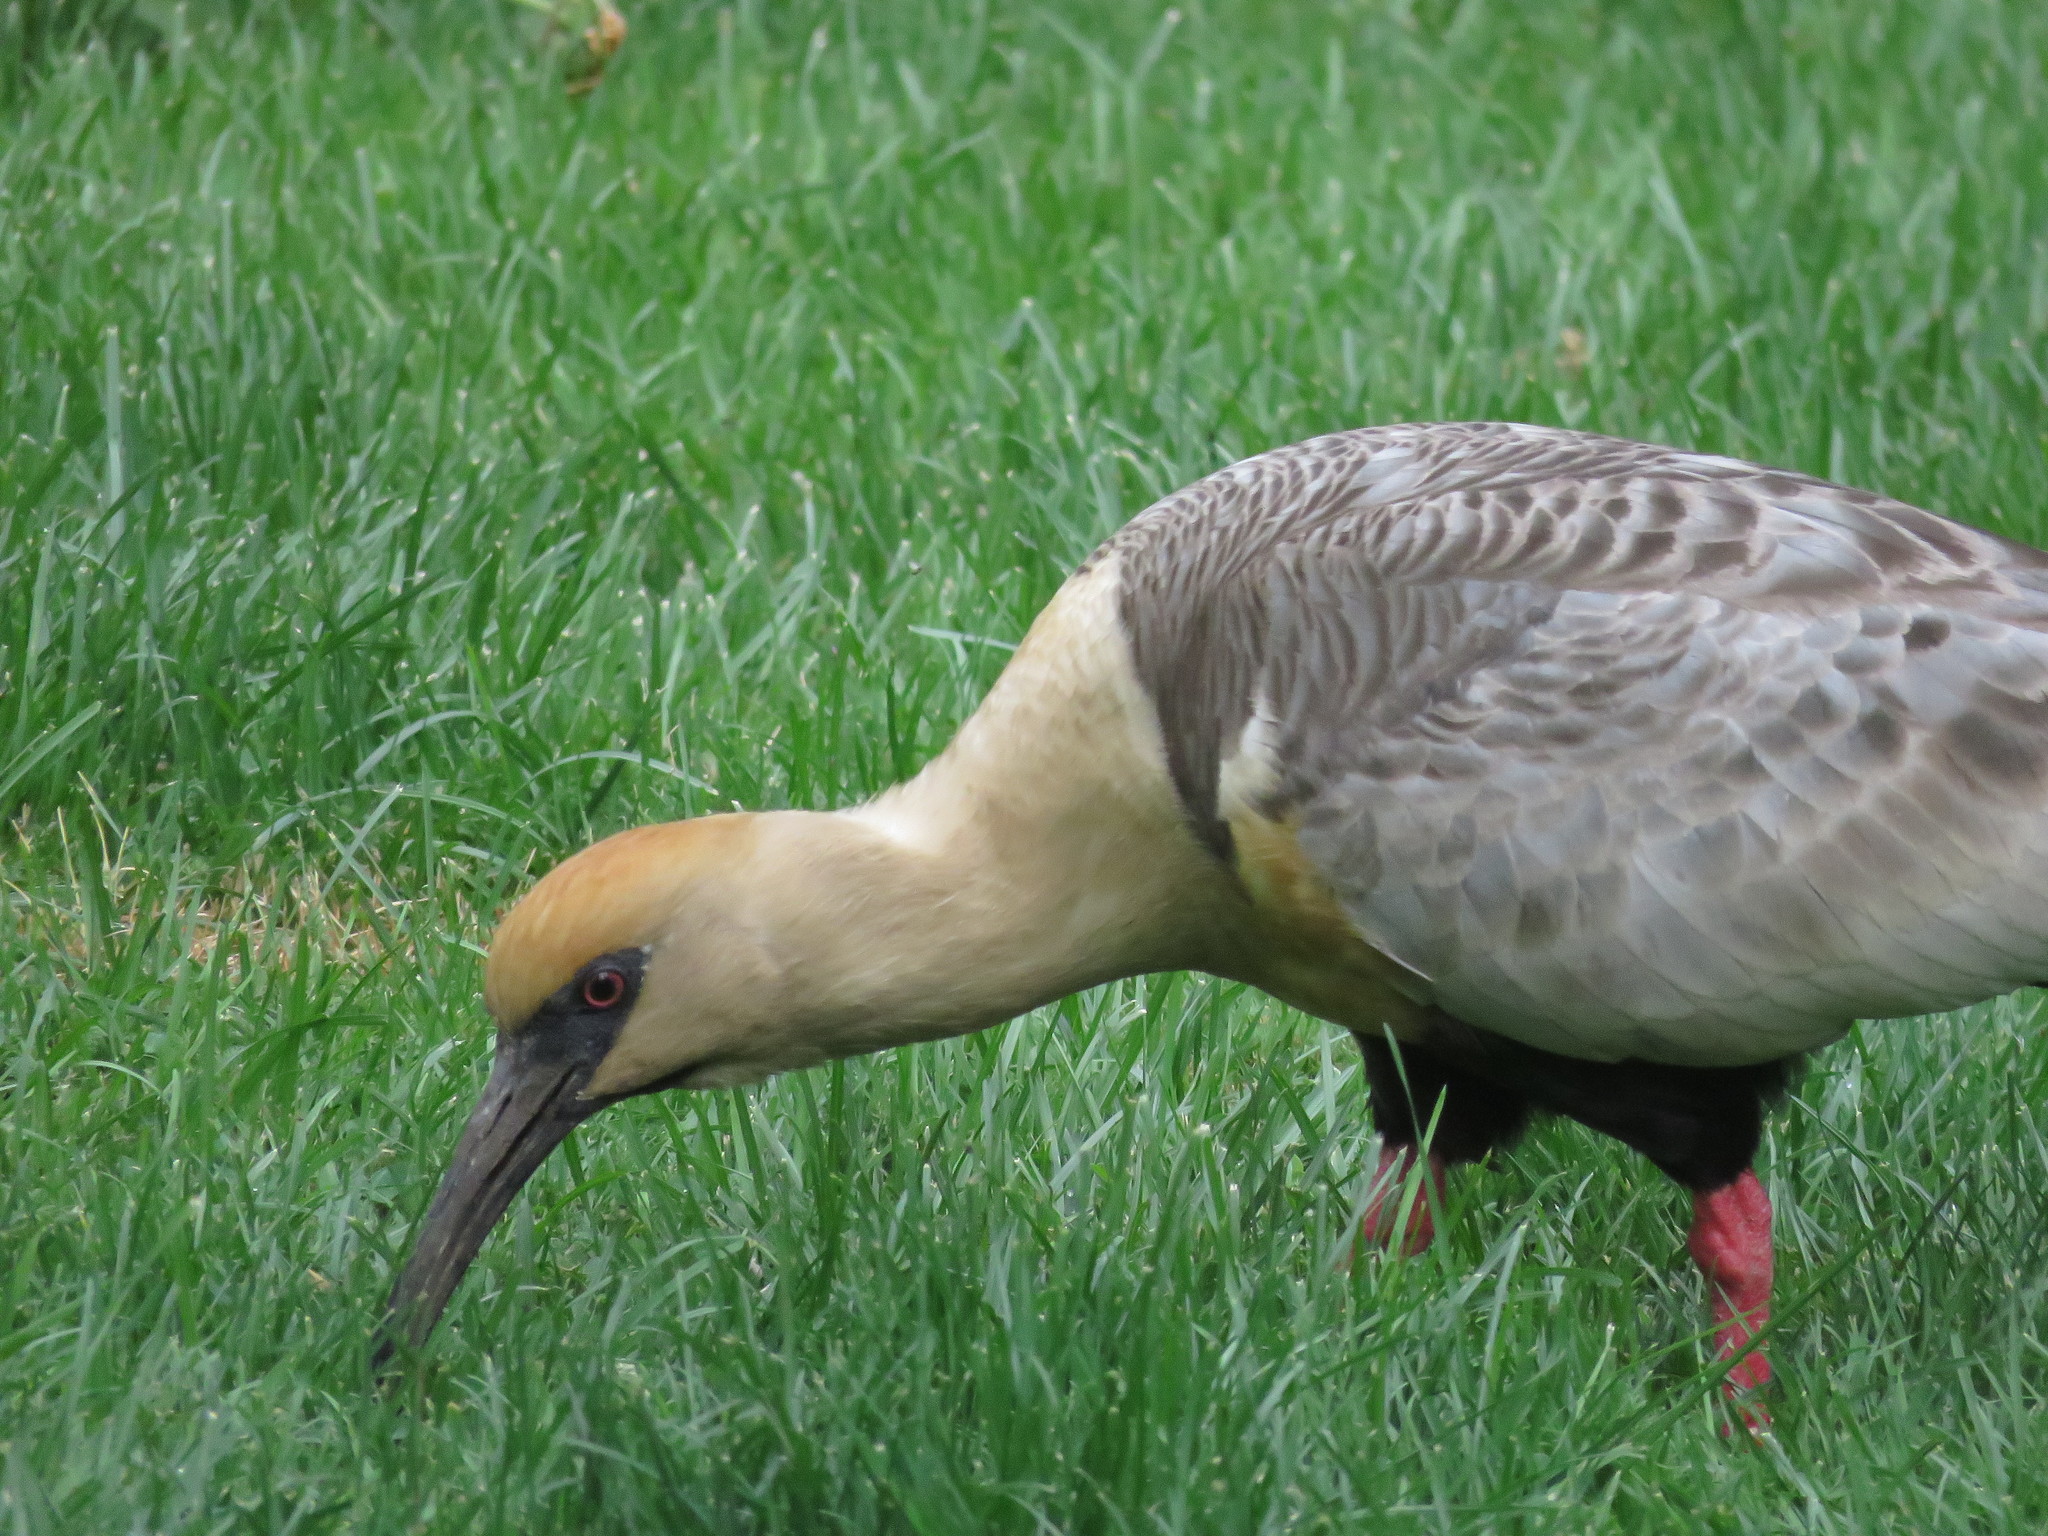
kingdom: Animalia
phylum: Chordata
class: Aves
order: Pelecaniformes
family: Threskiornithidae
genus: Theristicus
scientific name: Theristicus melanopis
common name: Black-faced ibis
